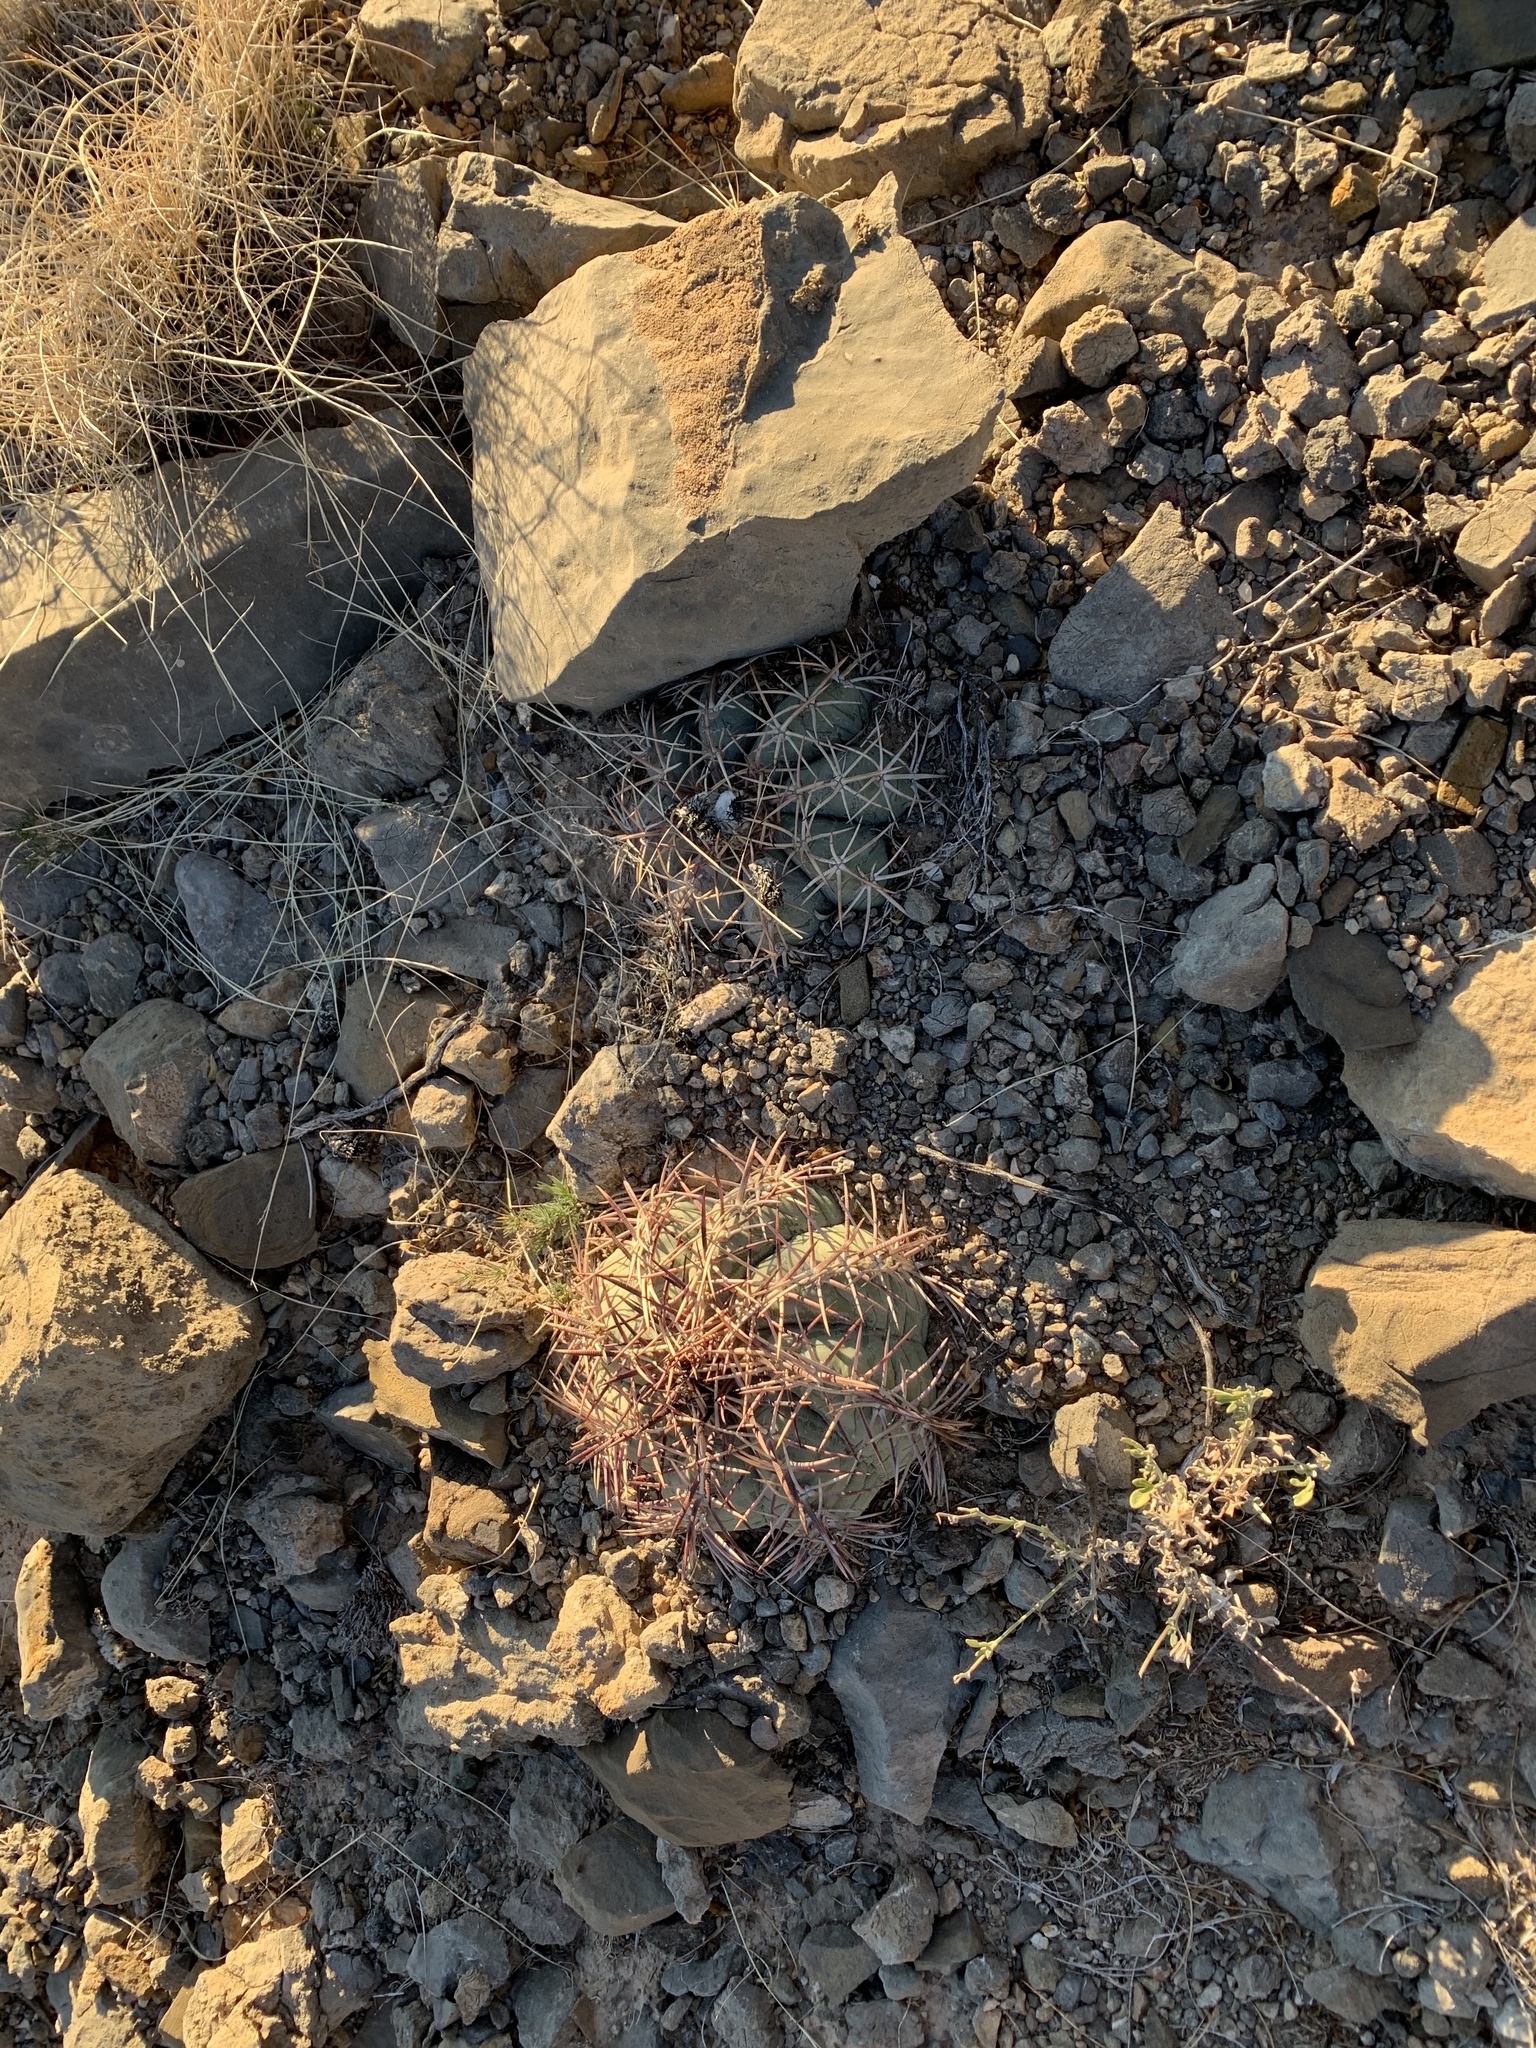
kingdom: Plantae
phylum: Tracheophyta
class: Magnoliopsida
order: Caryophyllales
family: Cactaceae
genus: Echinocactus
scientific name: Echinocactus horizonthalonius
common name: Devilshead
